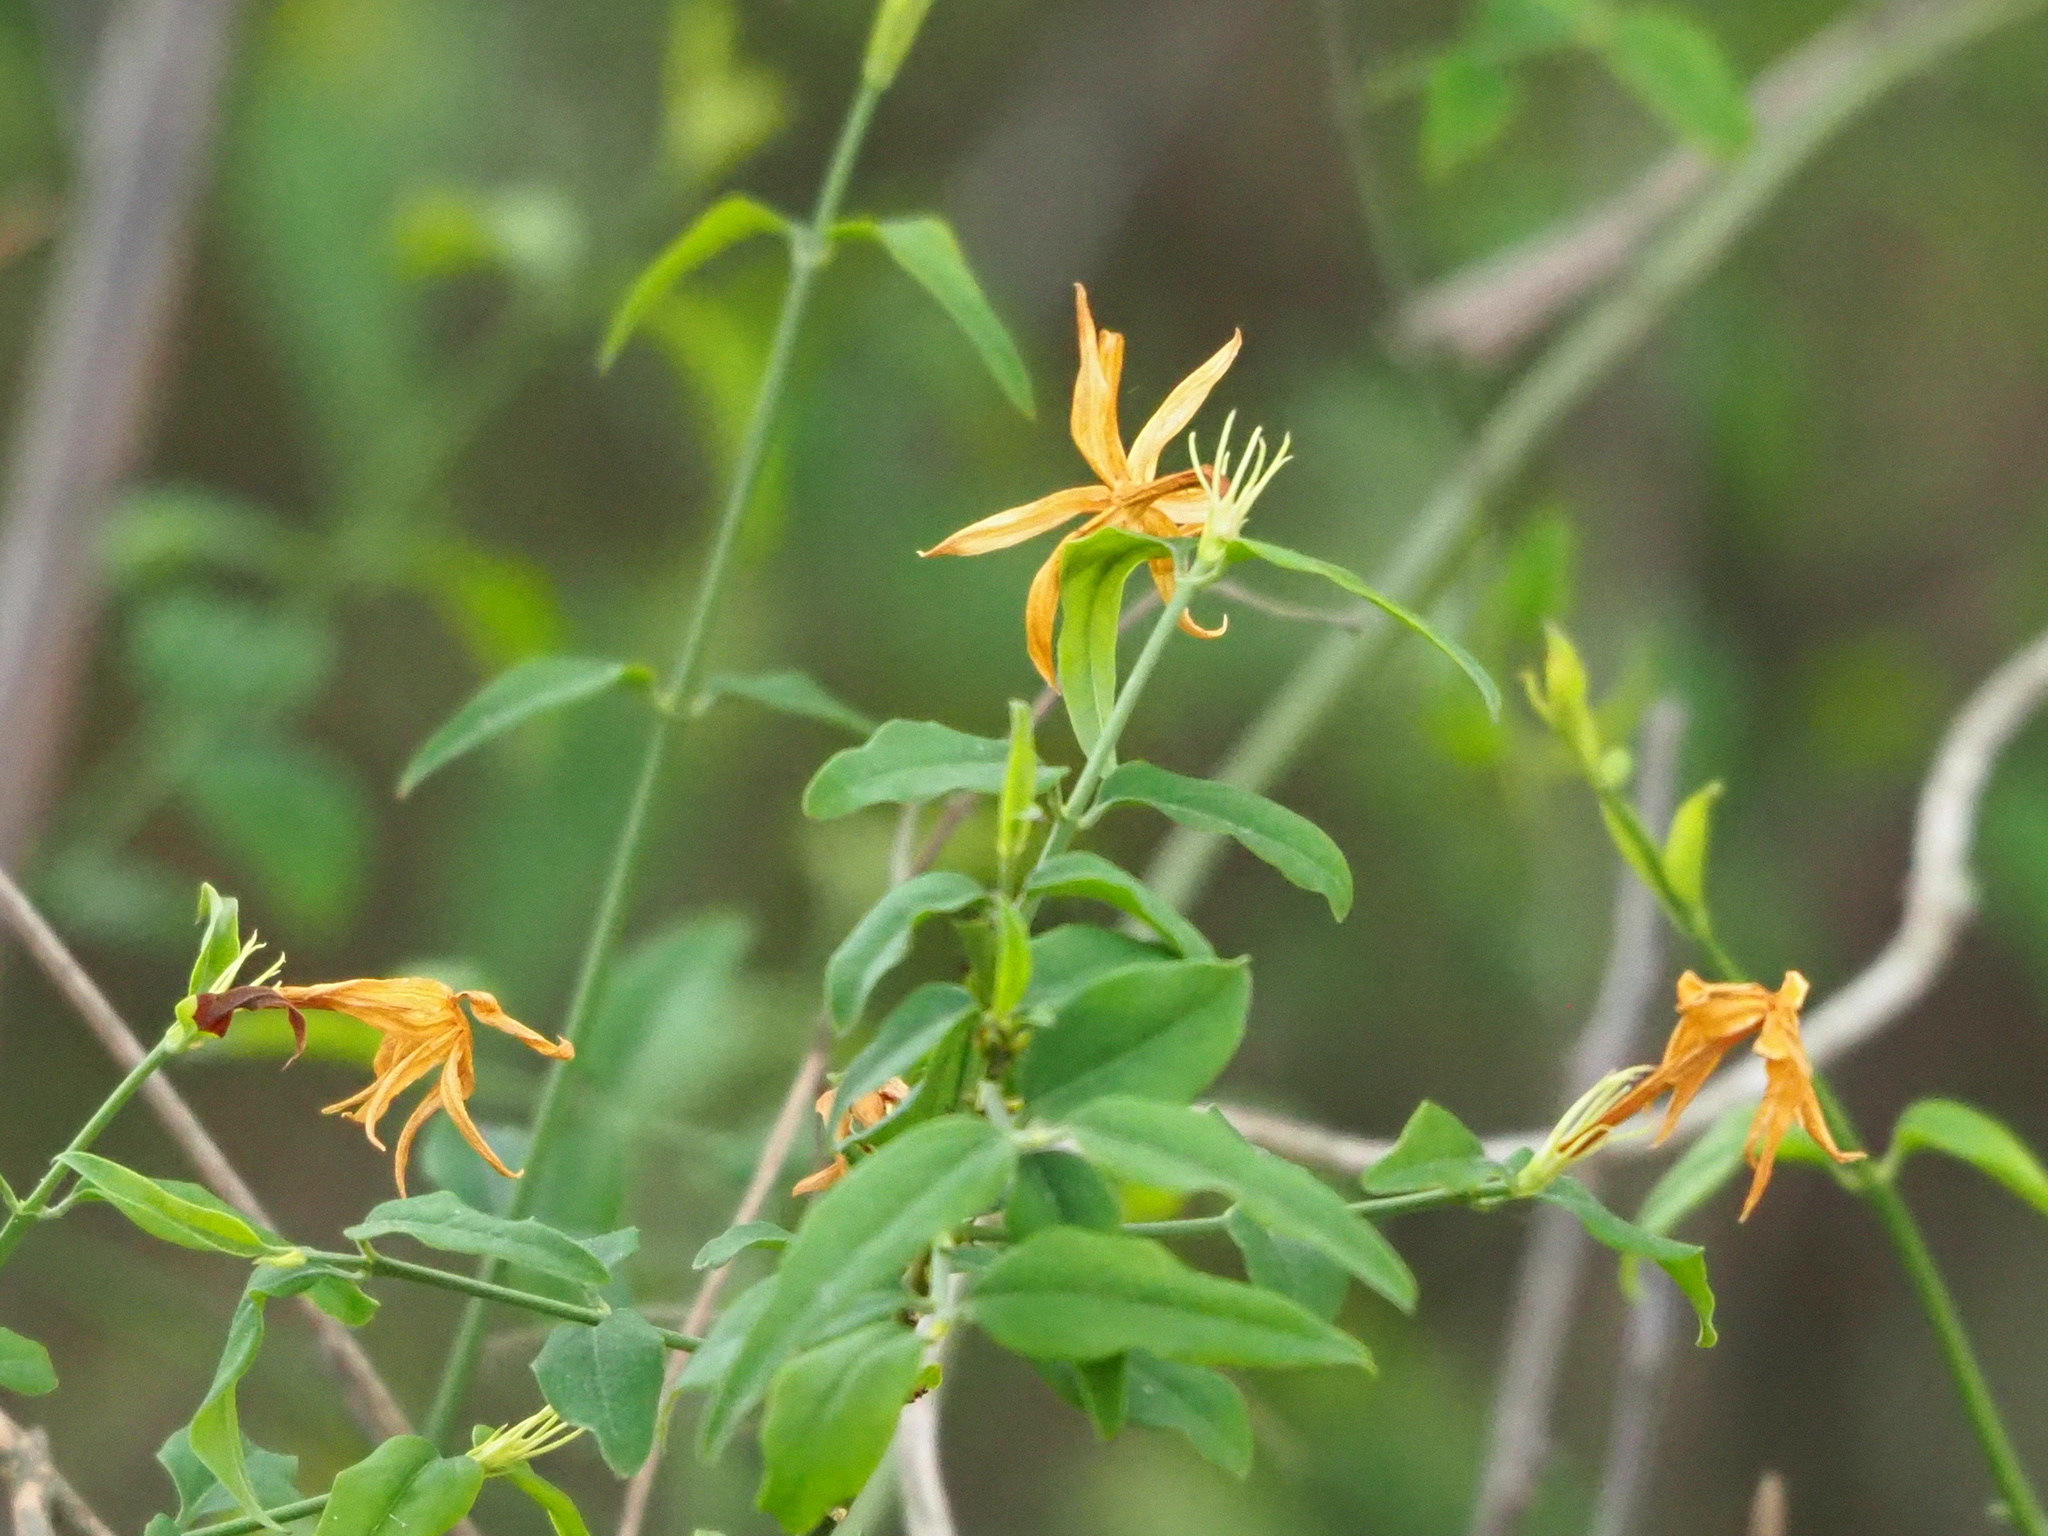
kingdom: Plantae
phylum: Tracheophyta
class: Magnoliopsida
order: Lamiales
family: Oleaceae
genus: Jasminum
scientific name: Jasminum nervosum
